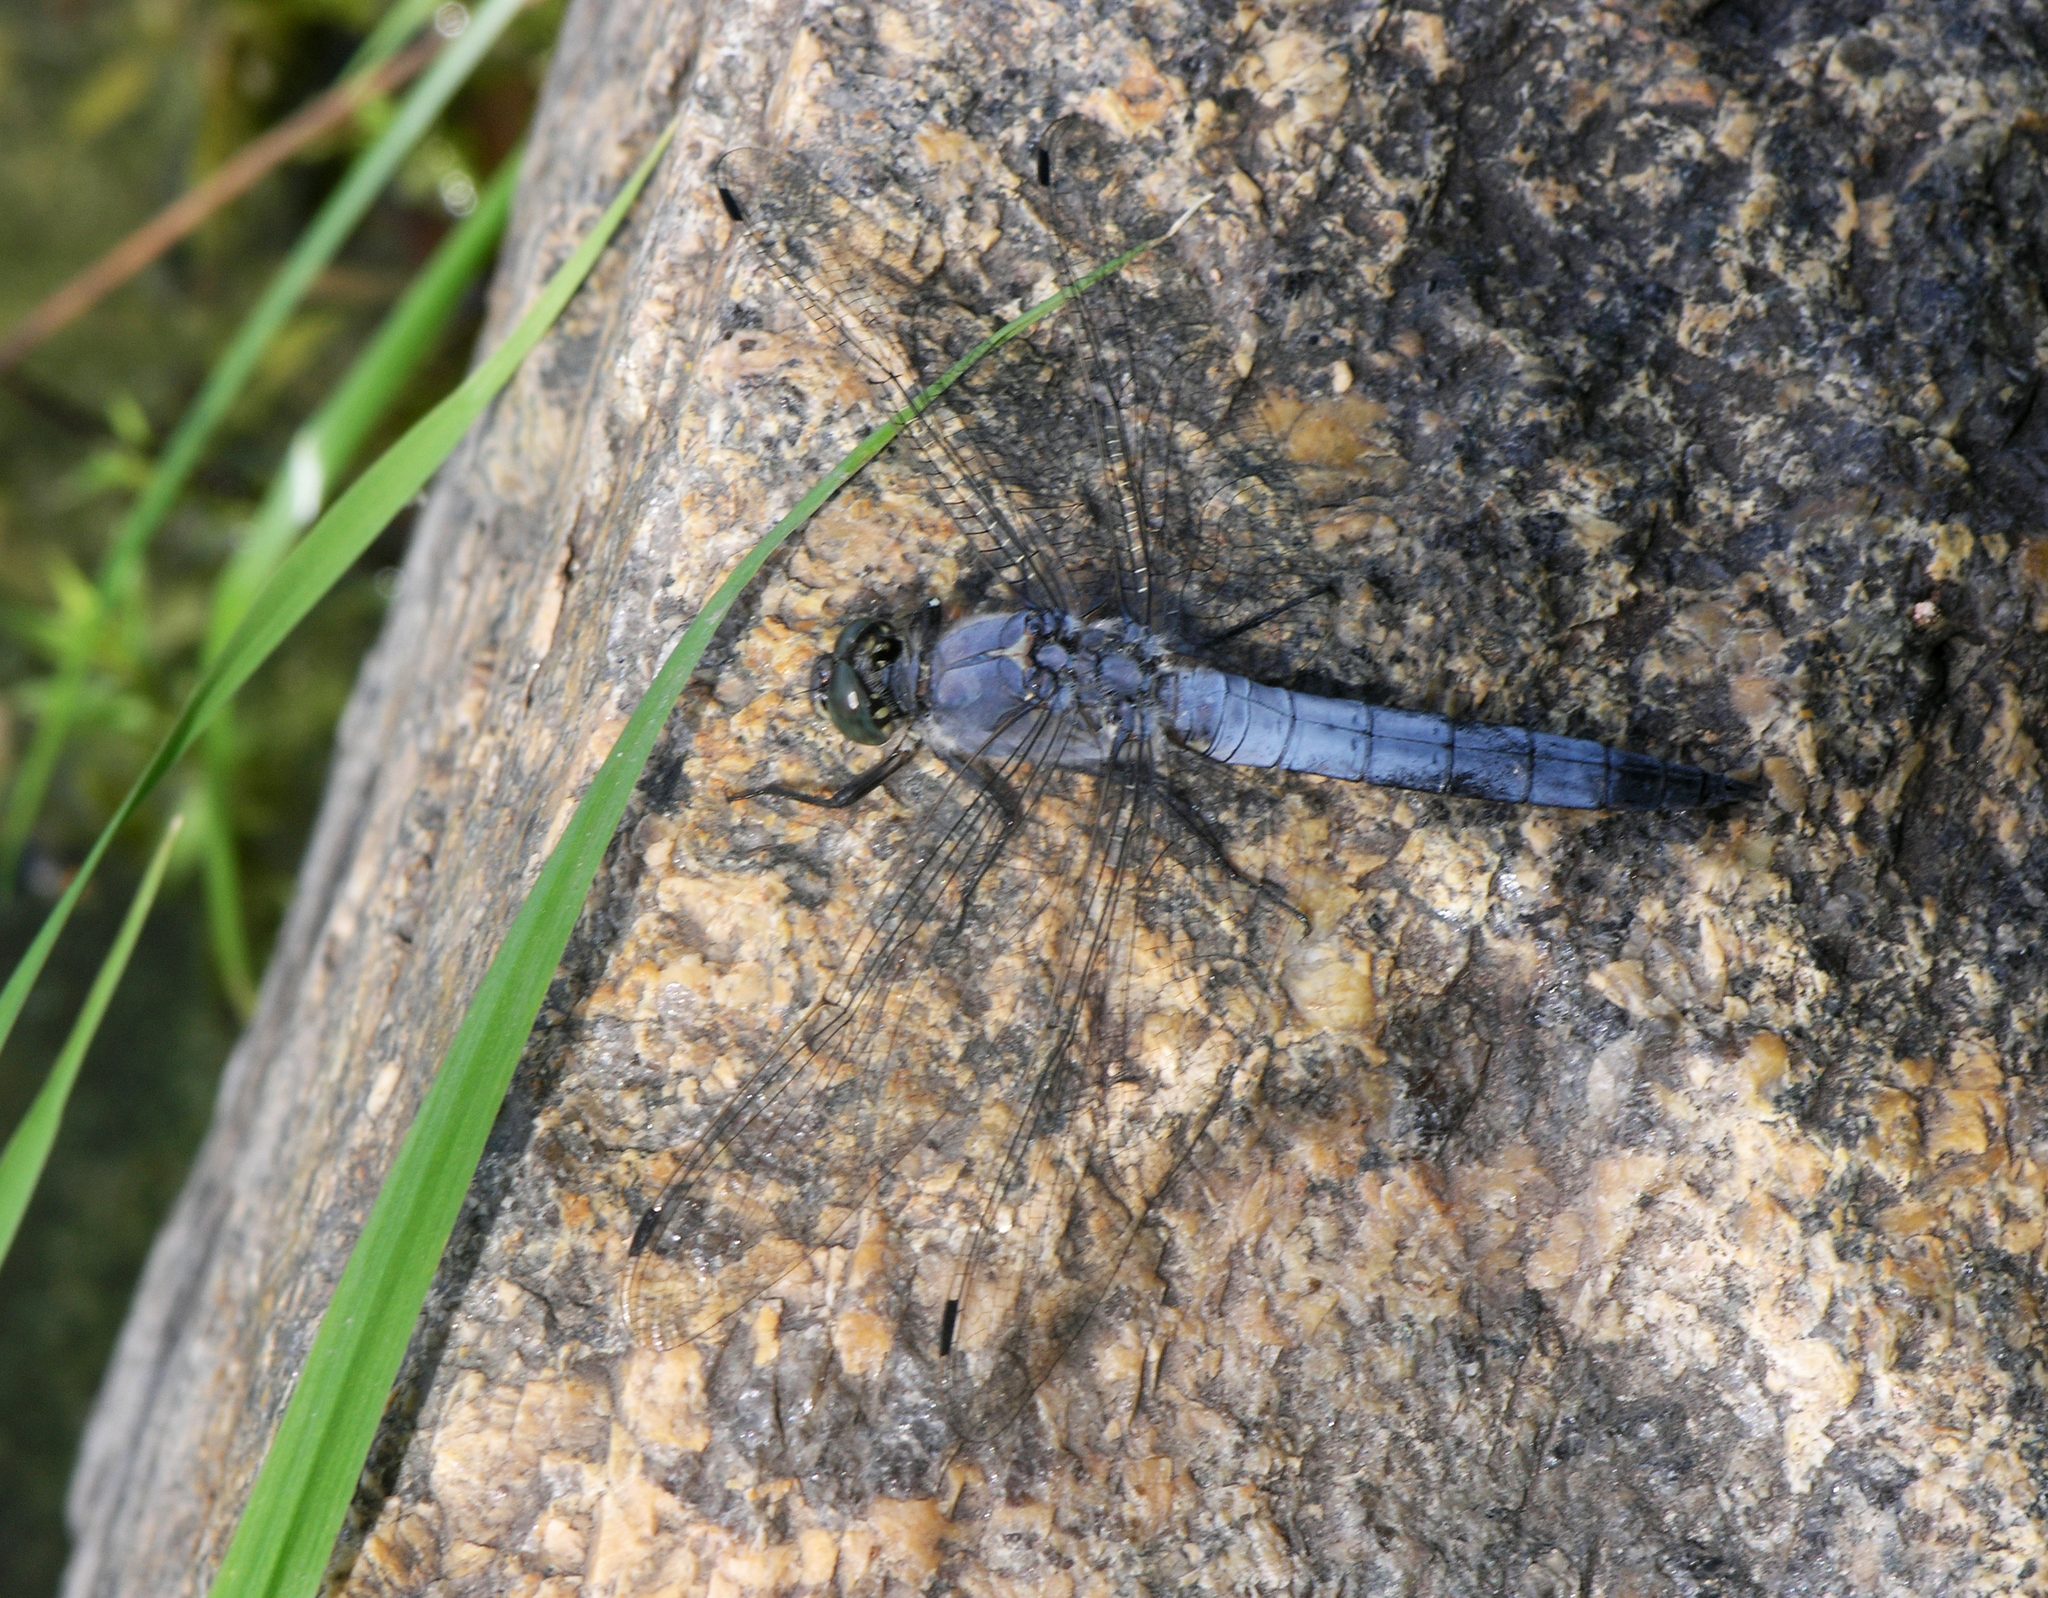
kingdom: Animalia
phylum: Arthropoda
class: Insecta
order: Odonata
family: Libellulidae
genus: Orthetrum
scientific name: Orthetrum cancellatum
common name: Black-tailed skimmer
